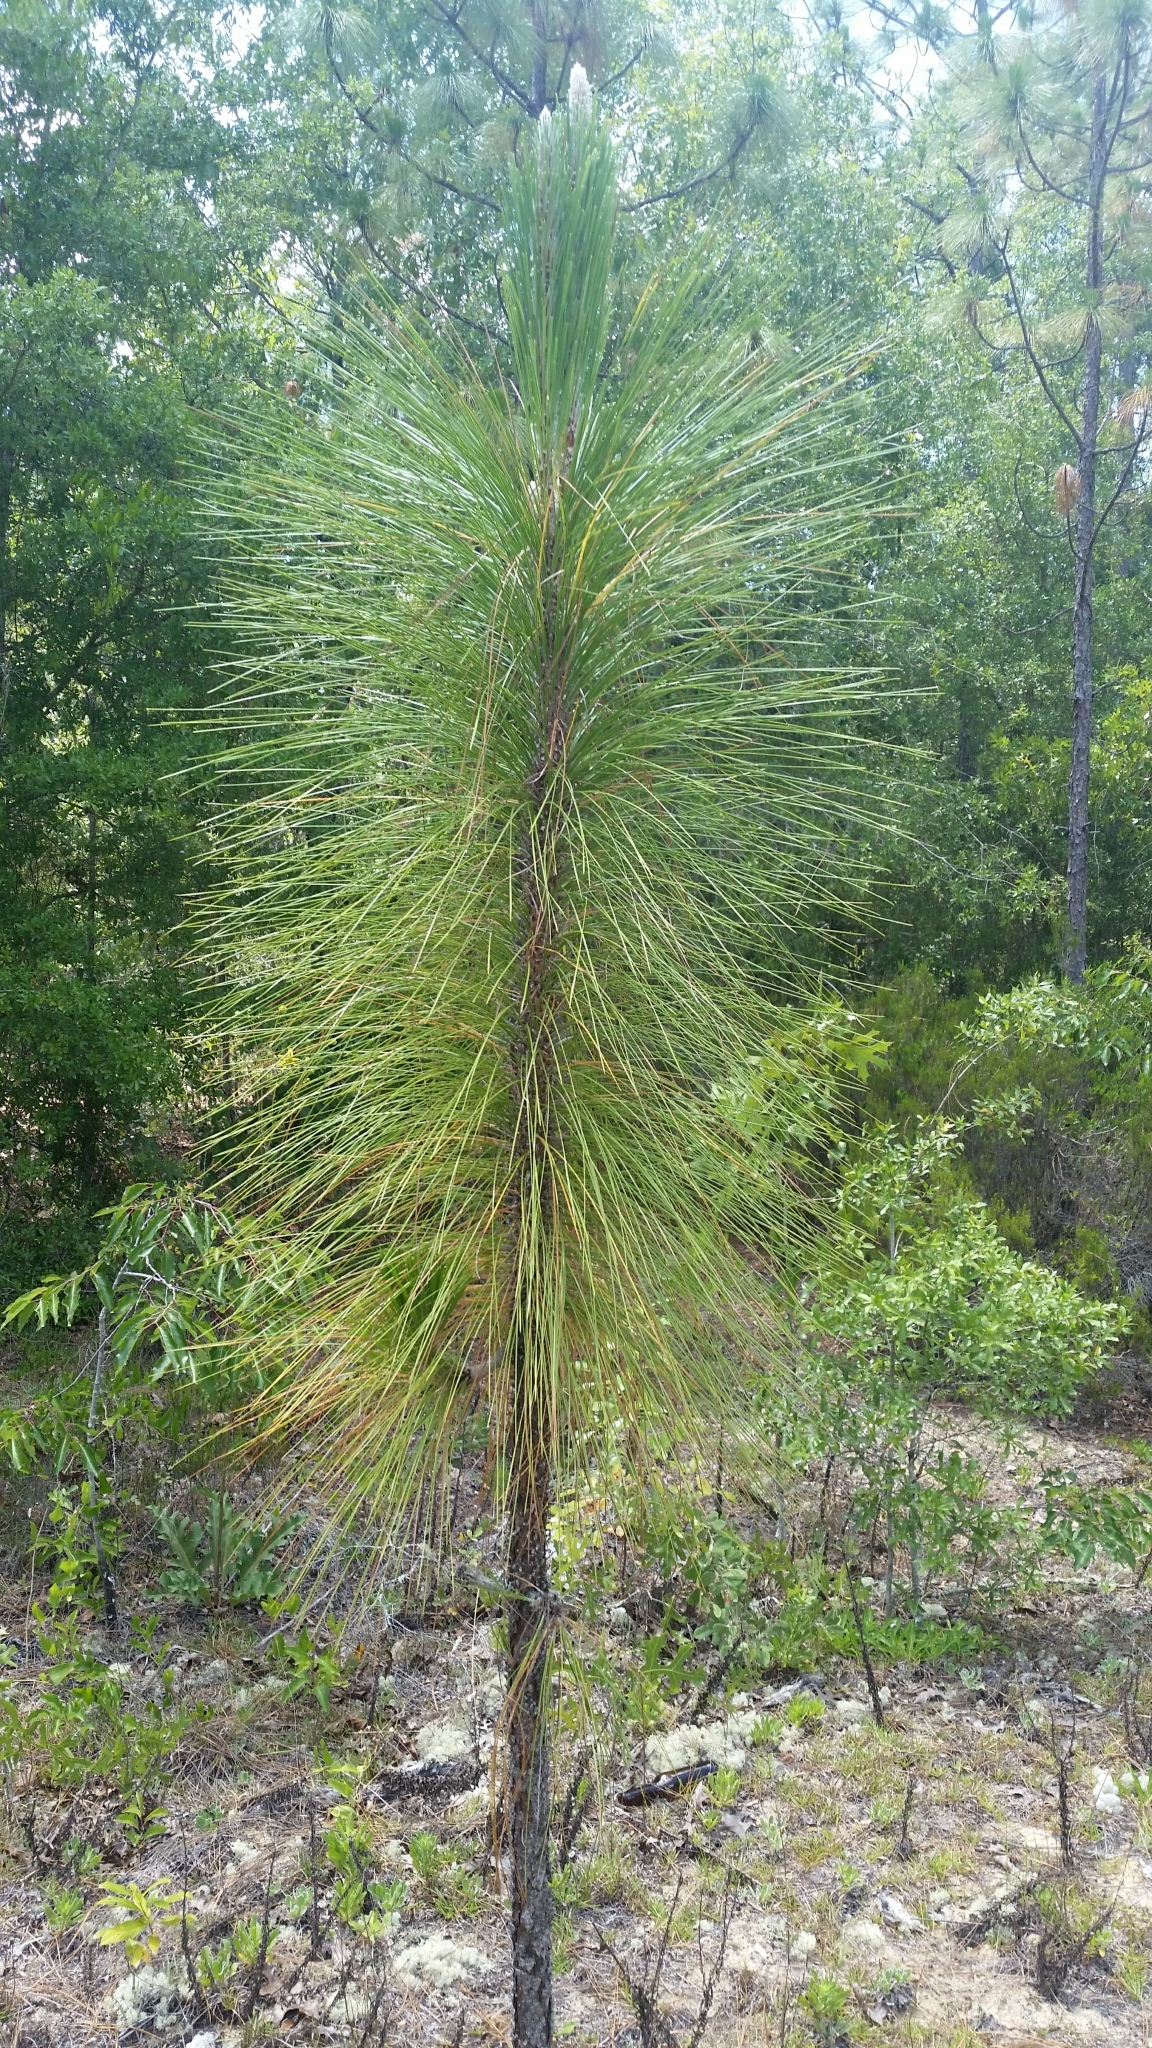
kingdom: Plantae
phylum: Tracheophyta
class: Pinopsida
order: Pinales
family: Pinaceae
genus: Pinus
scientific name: Pinus palustris
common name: Longleaf pine
